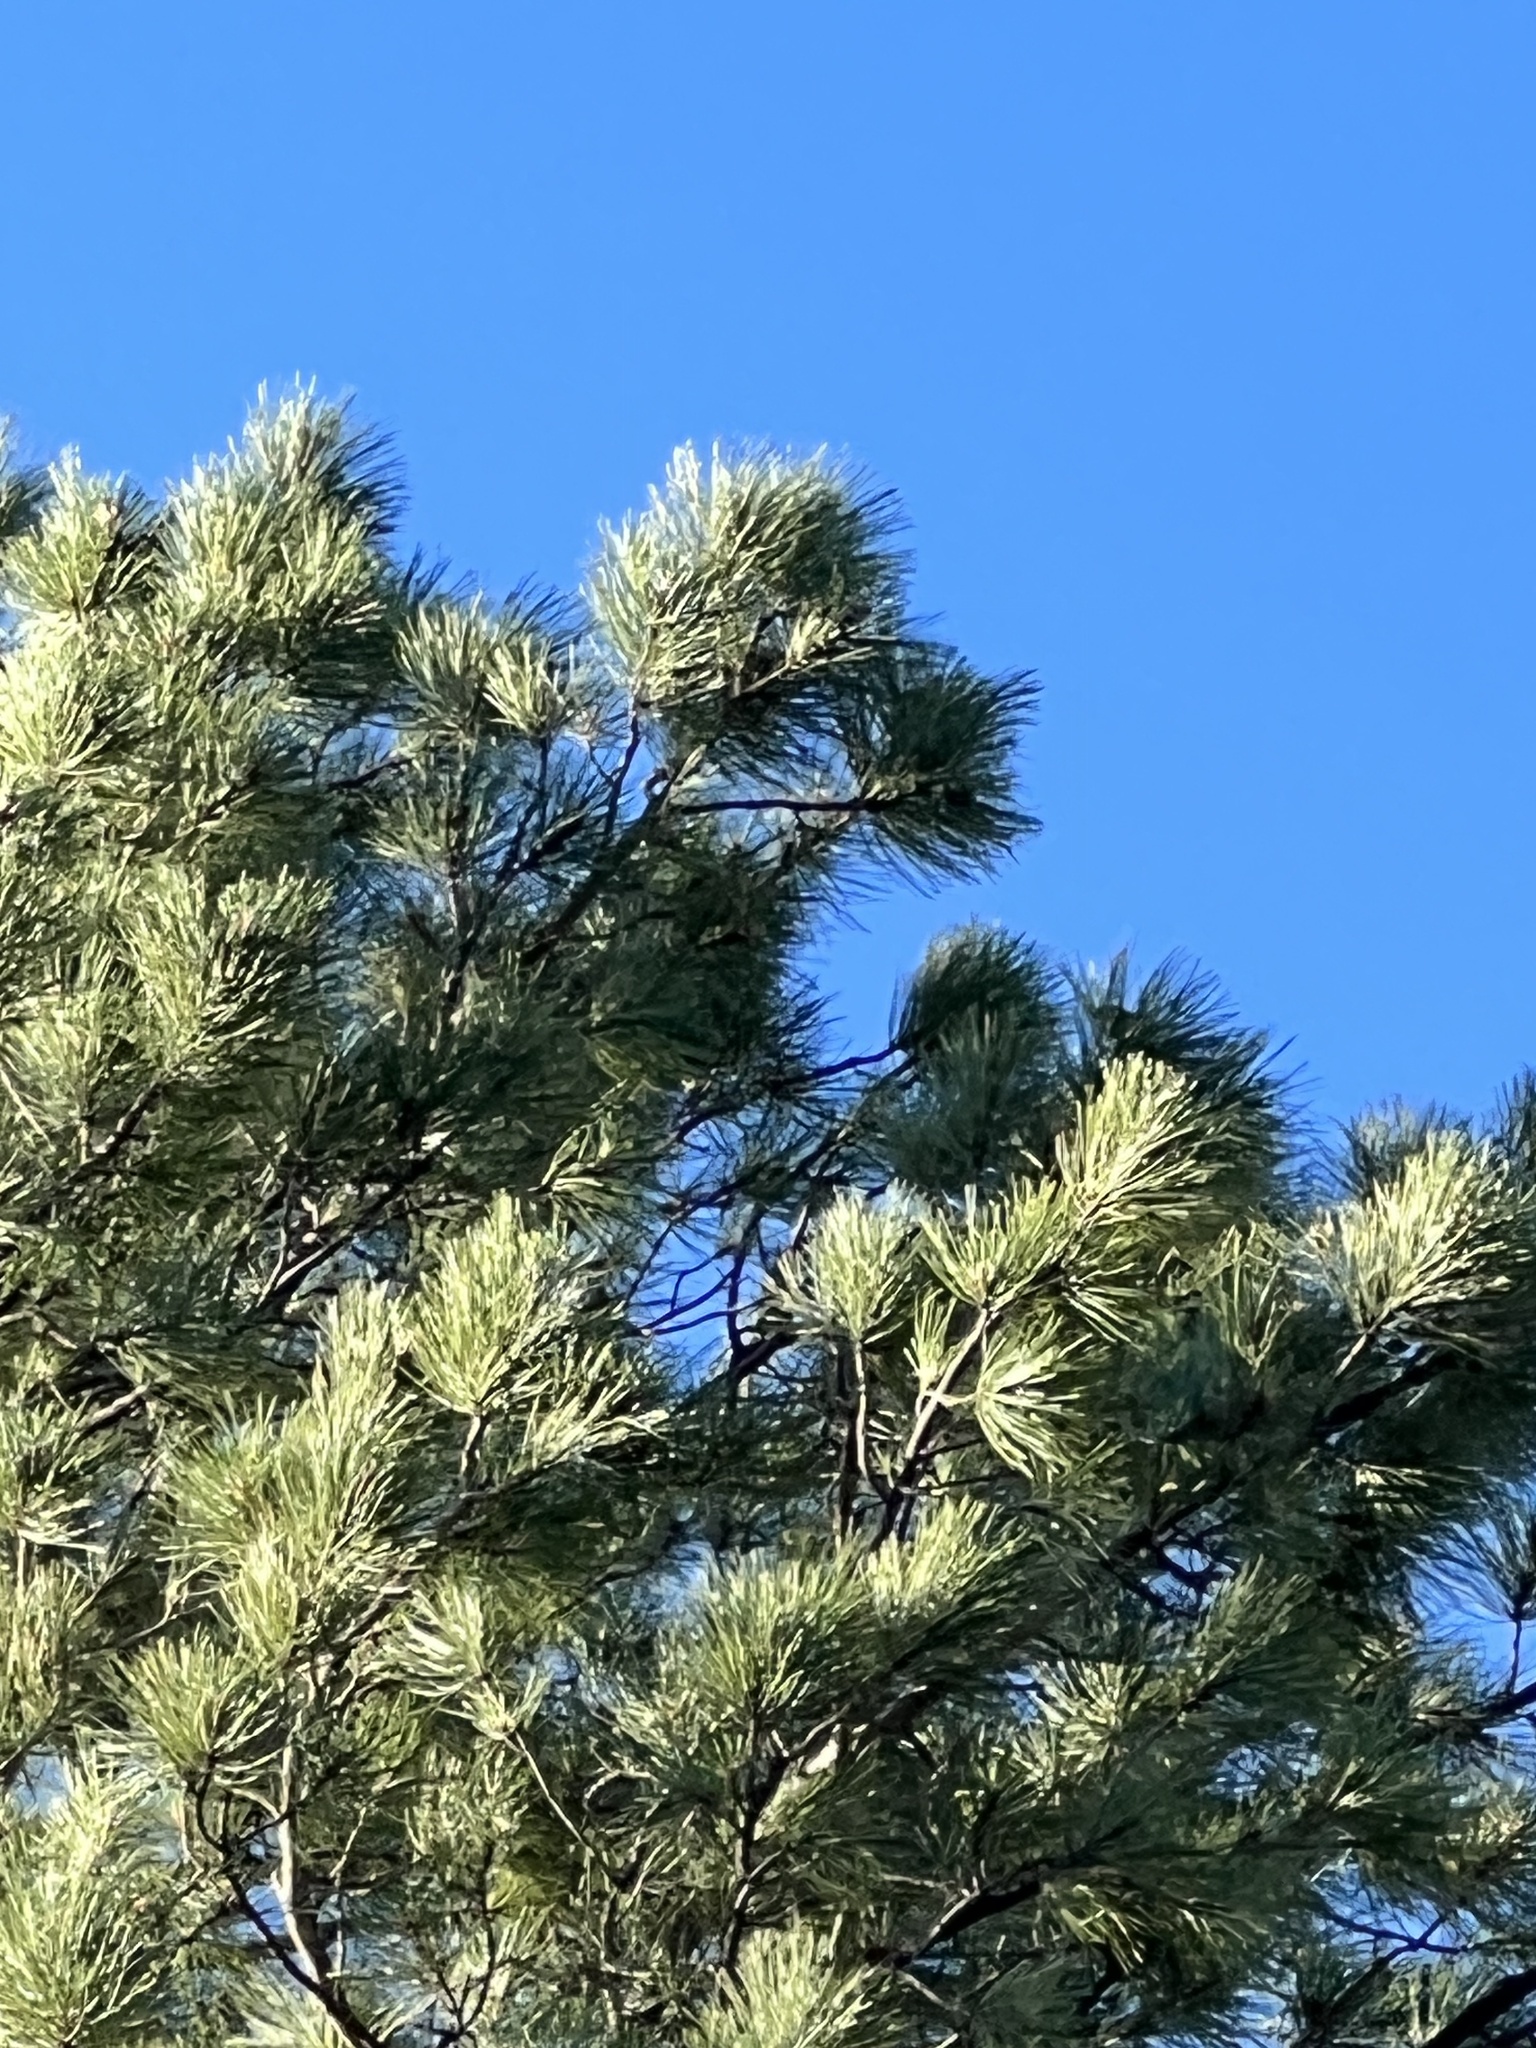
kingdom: Plantae
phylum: Tracheophyta
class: Pinopsida
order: Pinales
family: Pinaceae
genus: Pinus
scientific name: Pinus ponderosa
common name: Western yellow-pine
